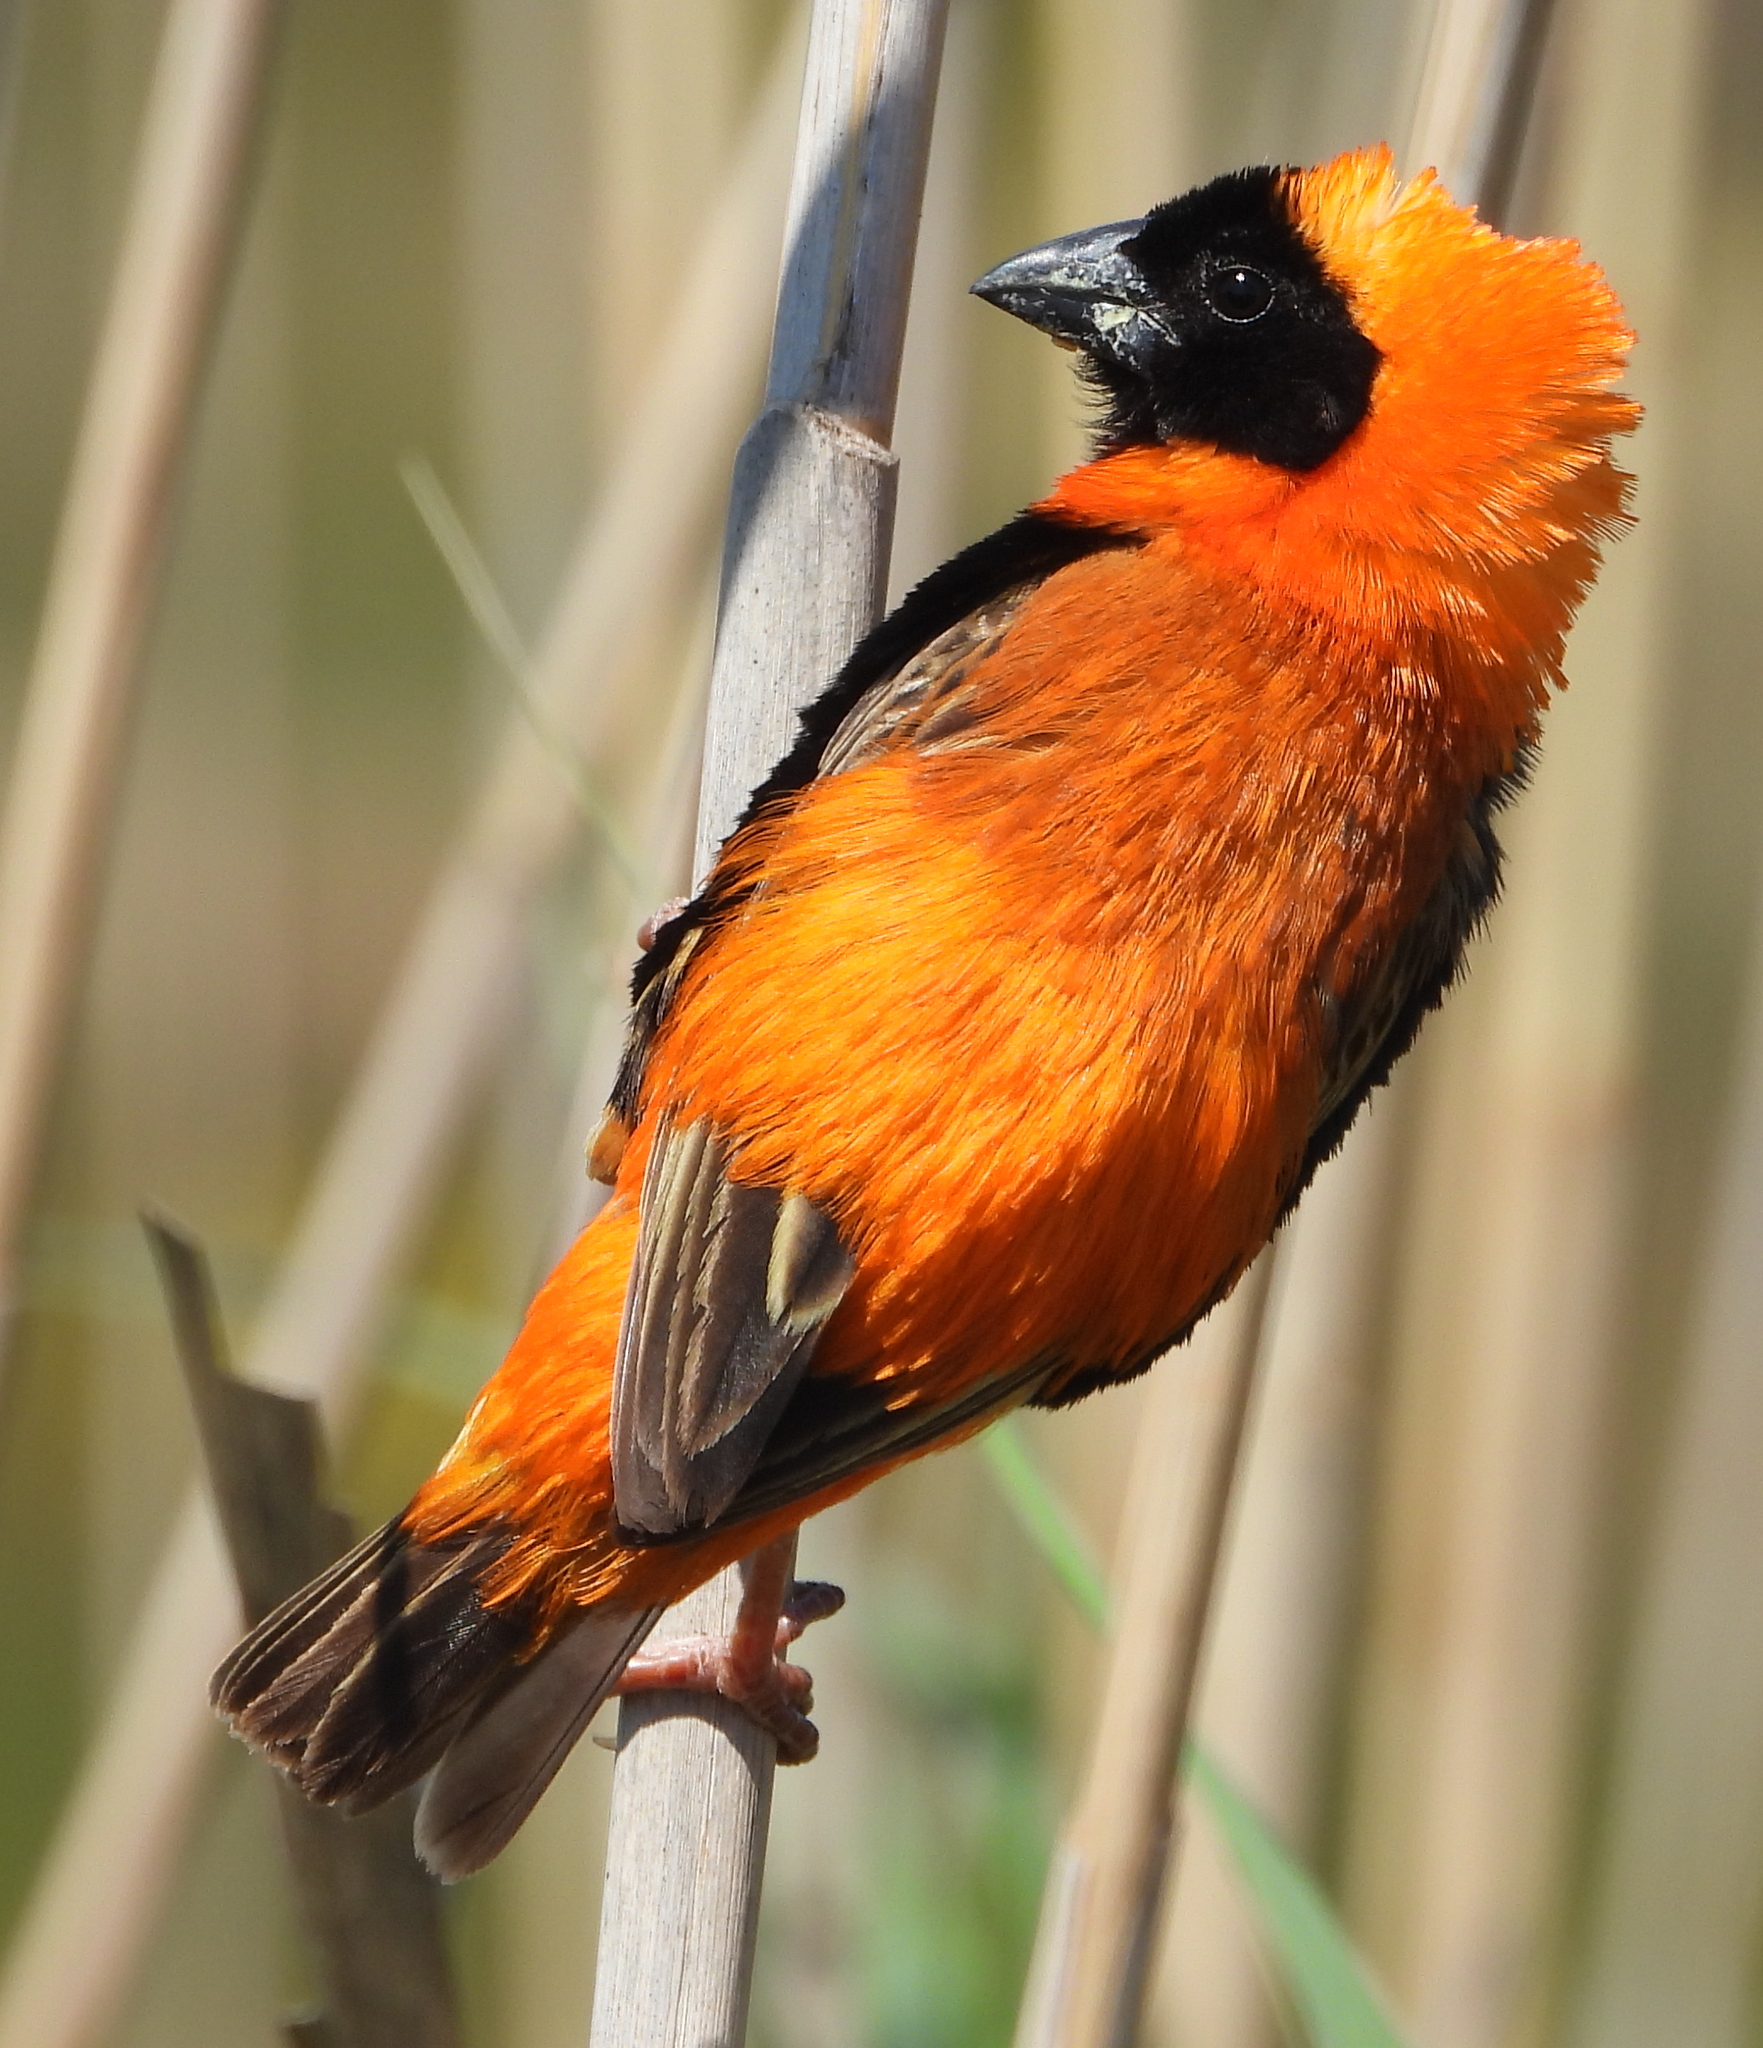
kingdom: Animalia
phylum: Chordata
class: Aves
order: Passeriformes
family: Ploceidae
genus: Euplectes
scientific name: Euplectes orix
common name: Southern red bishop
